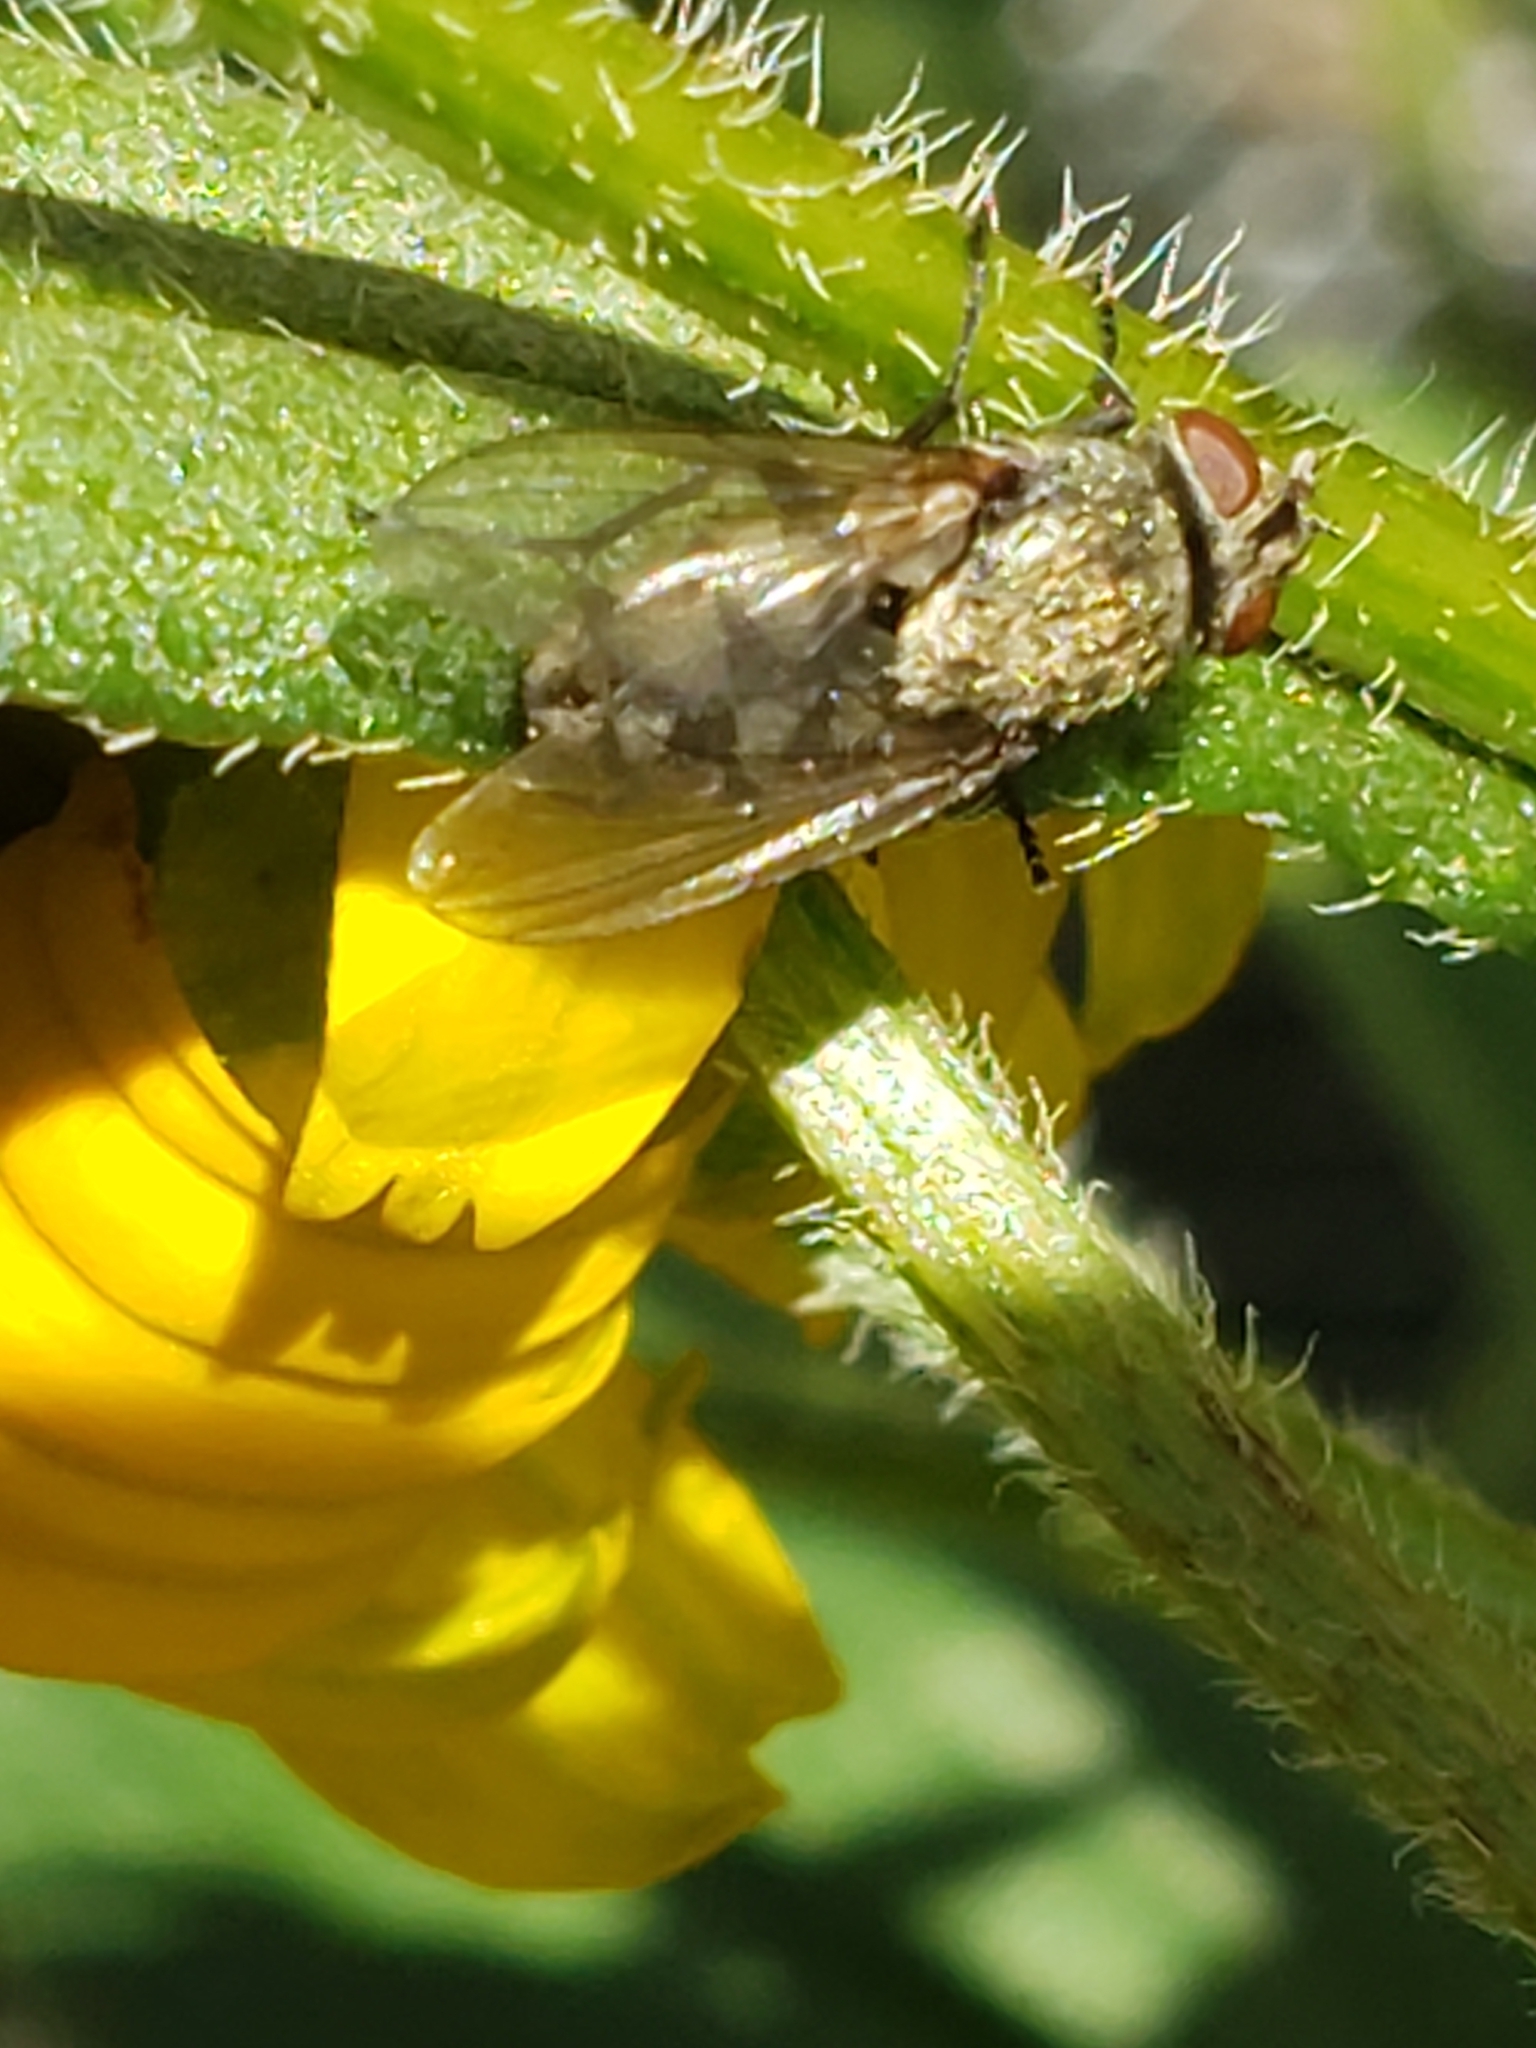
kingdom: Animalia
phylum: Arthropoda
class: Insecta
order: Diptera
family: Polleniidae
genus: Pollenia
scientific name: Pollenia
